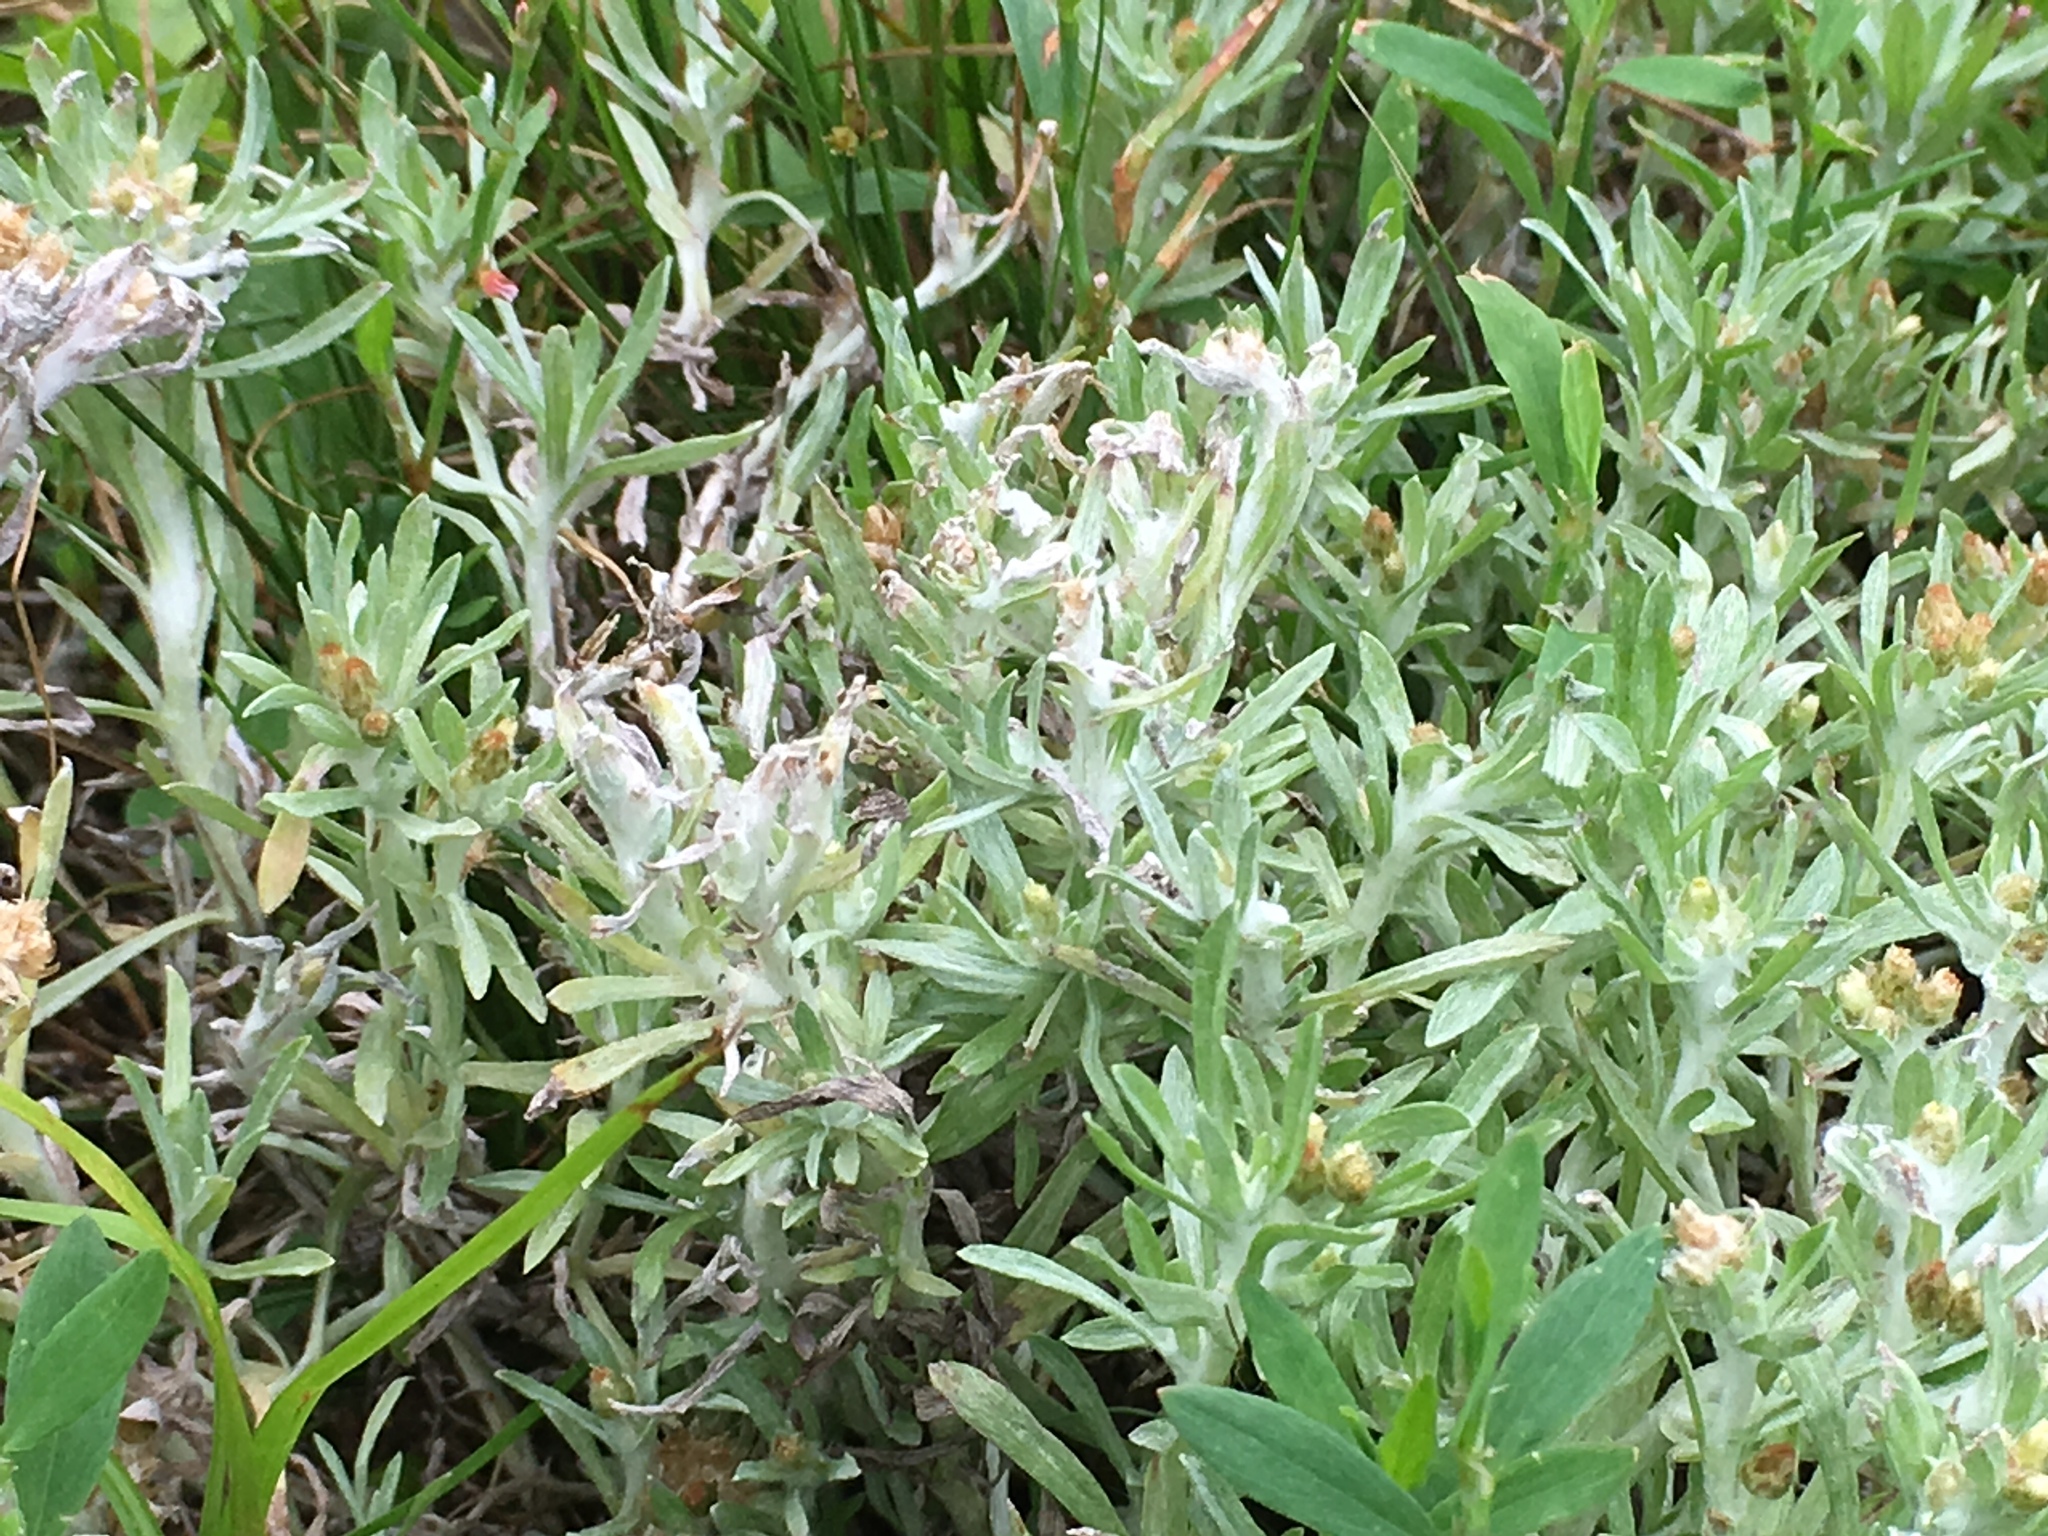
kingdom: Plantae
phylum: Tracheophyta
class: Magnoliopsida
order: Asterales
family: Asteraceae
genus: Gnaphalium
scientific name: Gnaphalium uliginosum
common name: Marsh cudweed
